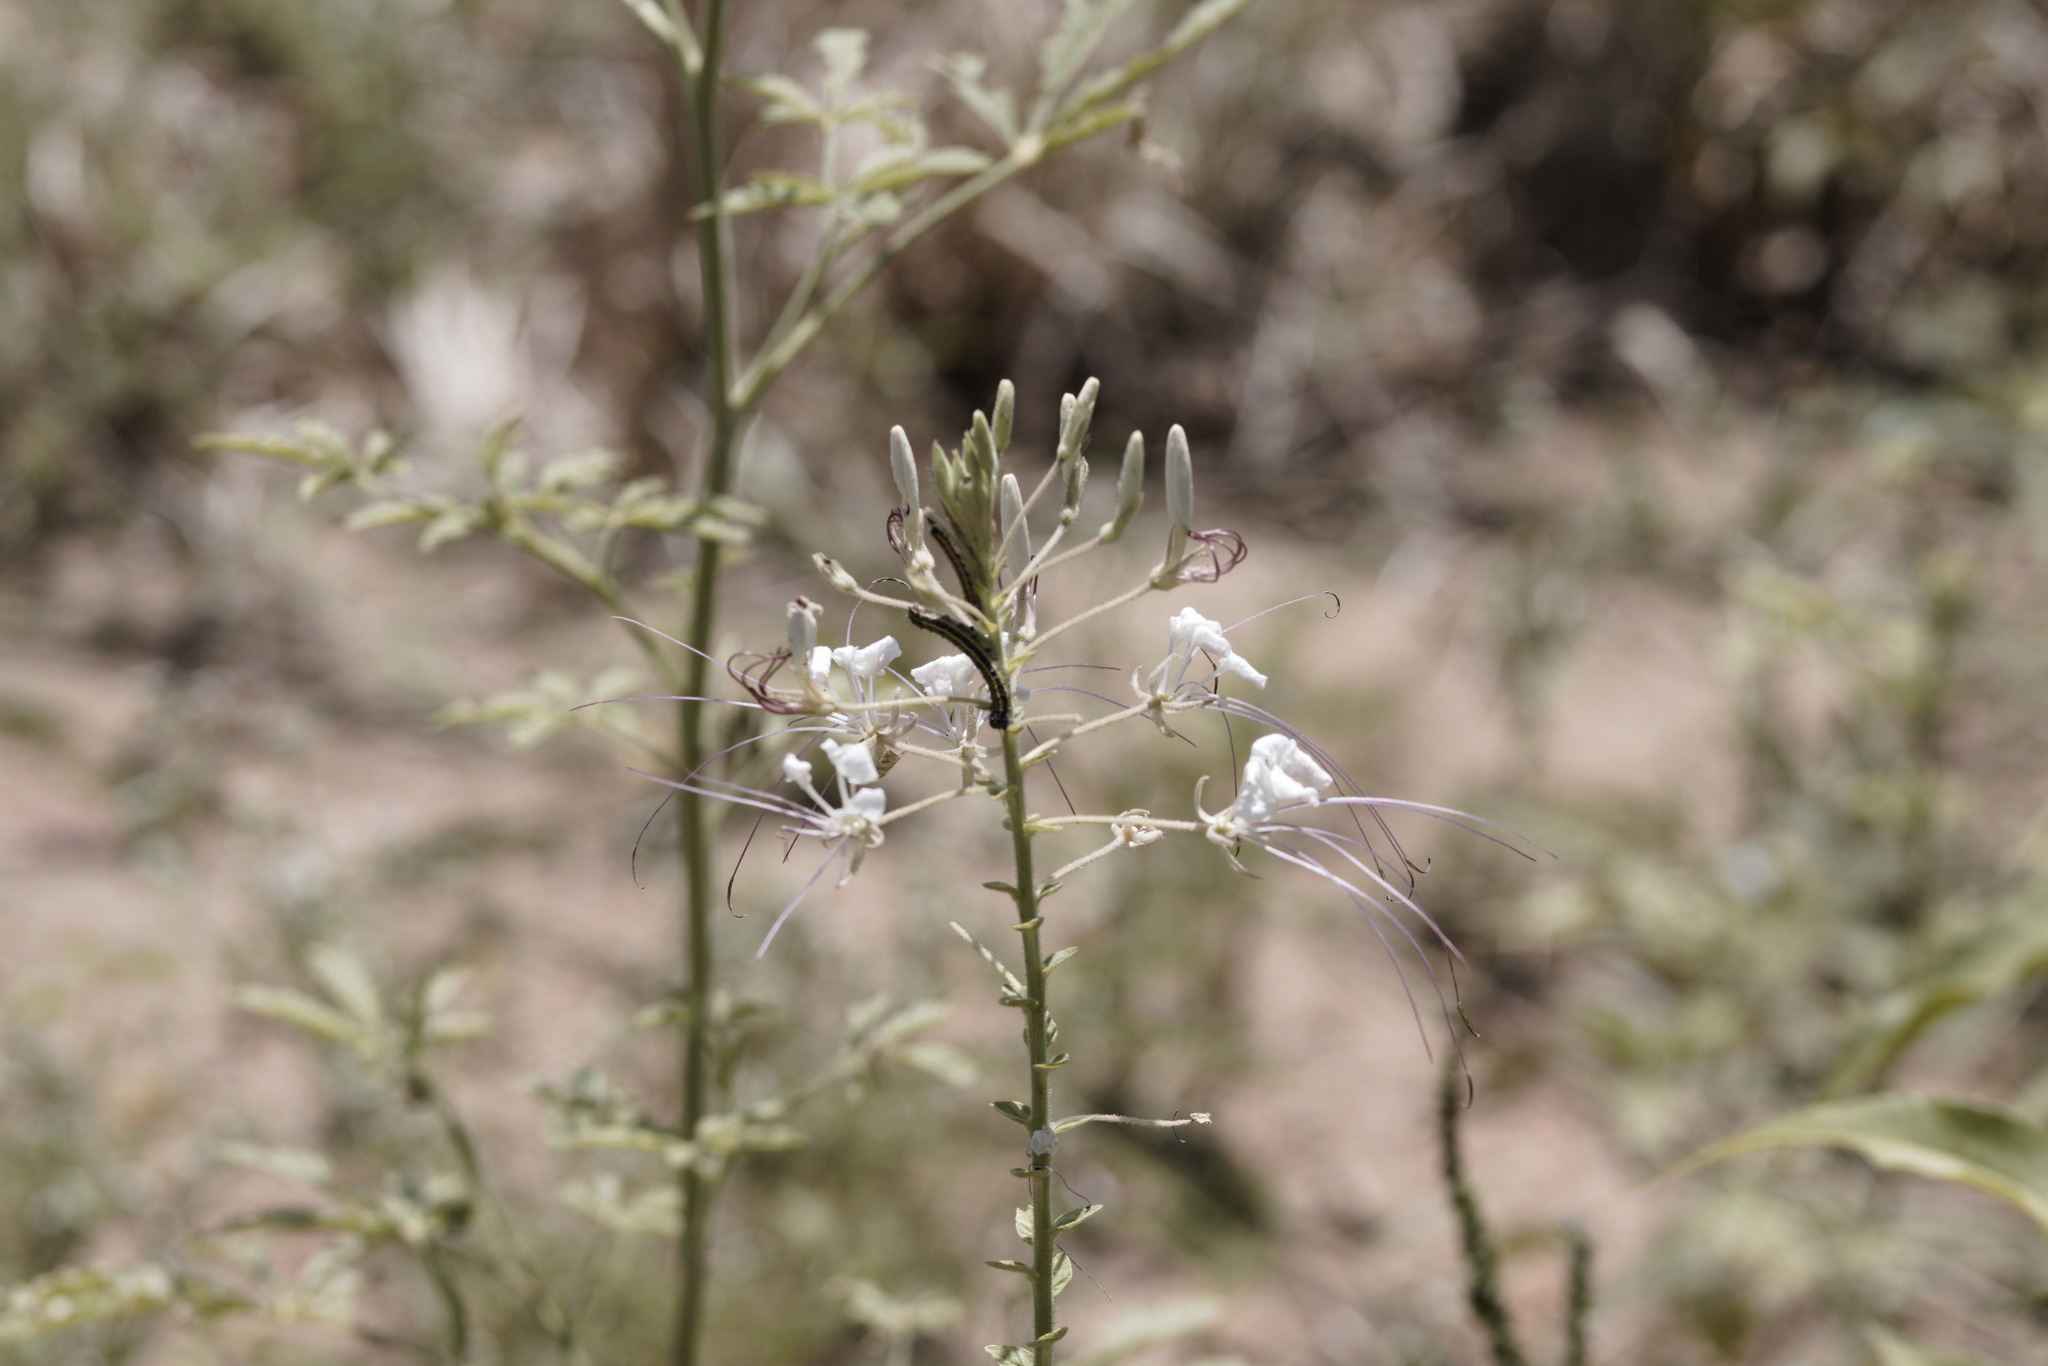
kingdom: Plantae
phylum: Tracheophyta
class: Magnoliopsida
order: Brassicales
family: Cleomaceae
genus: Tarenaya
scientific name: Tarenaya longicarpa
